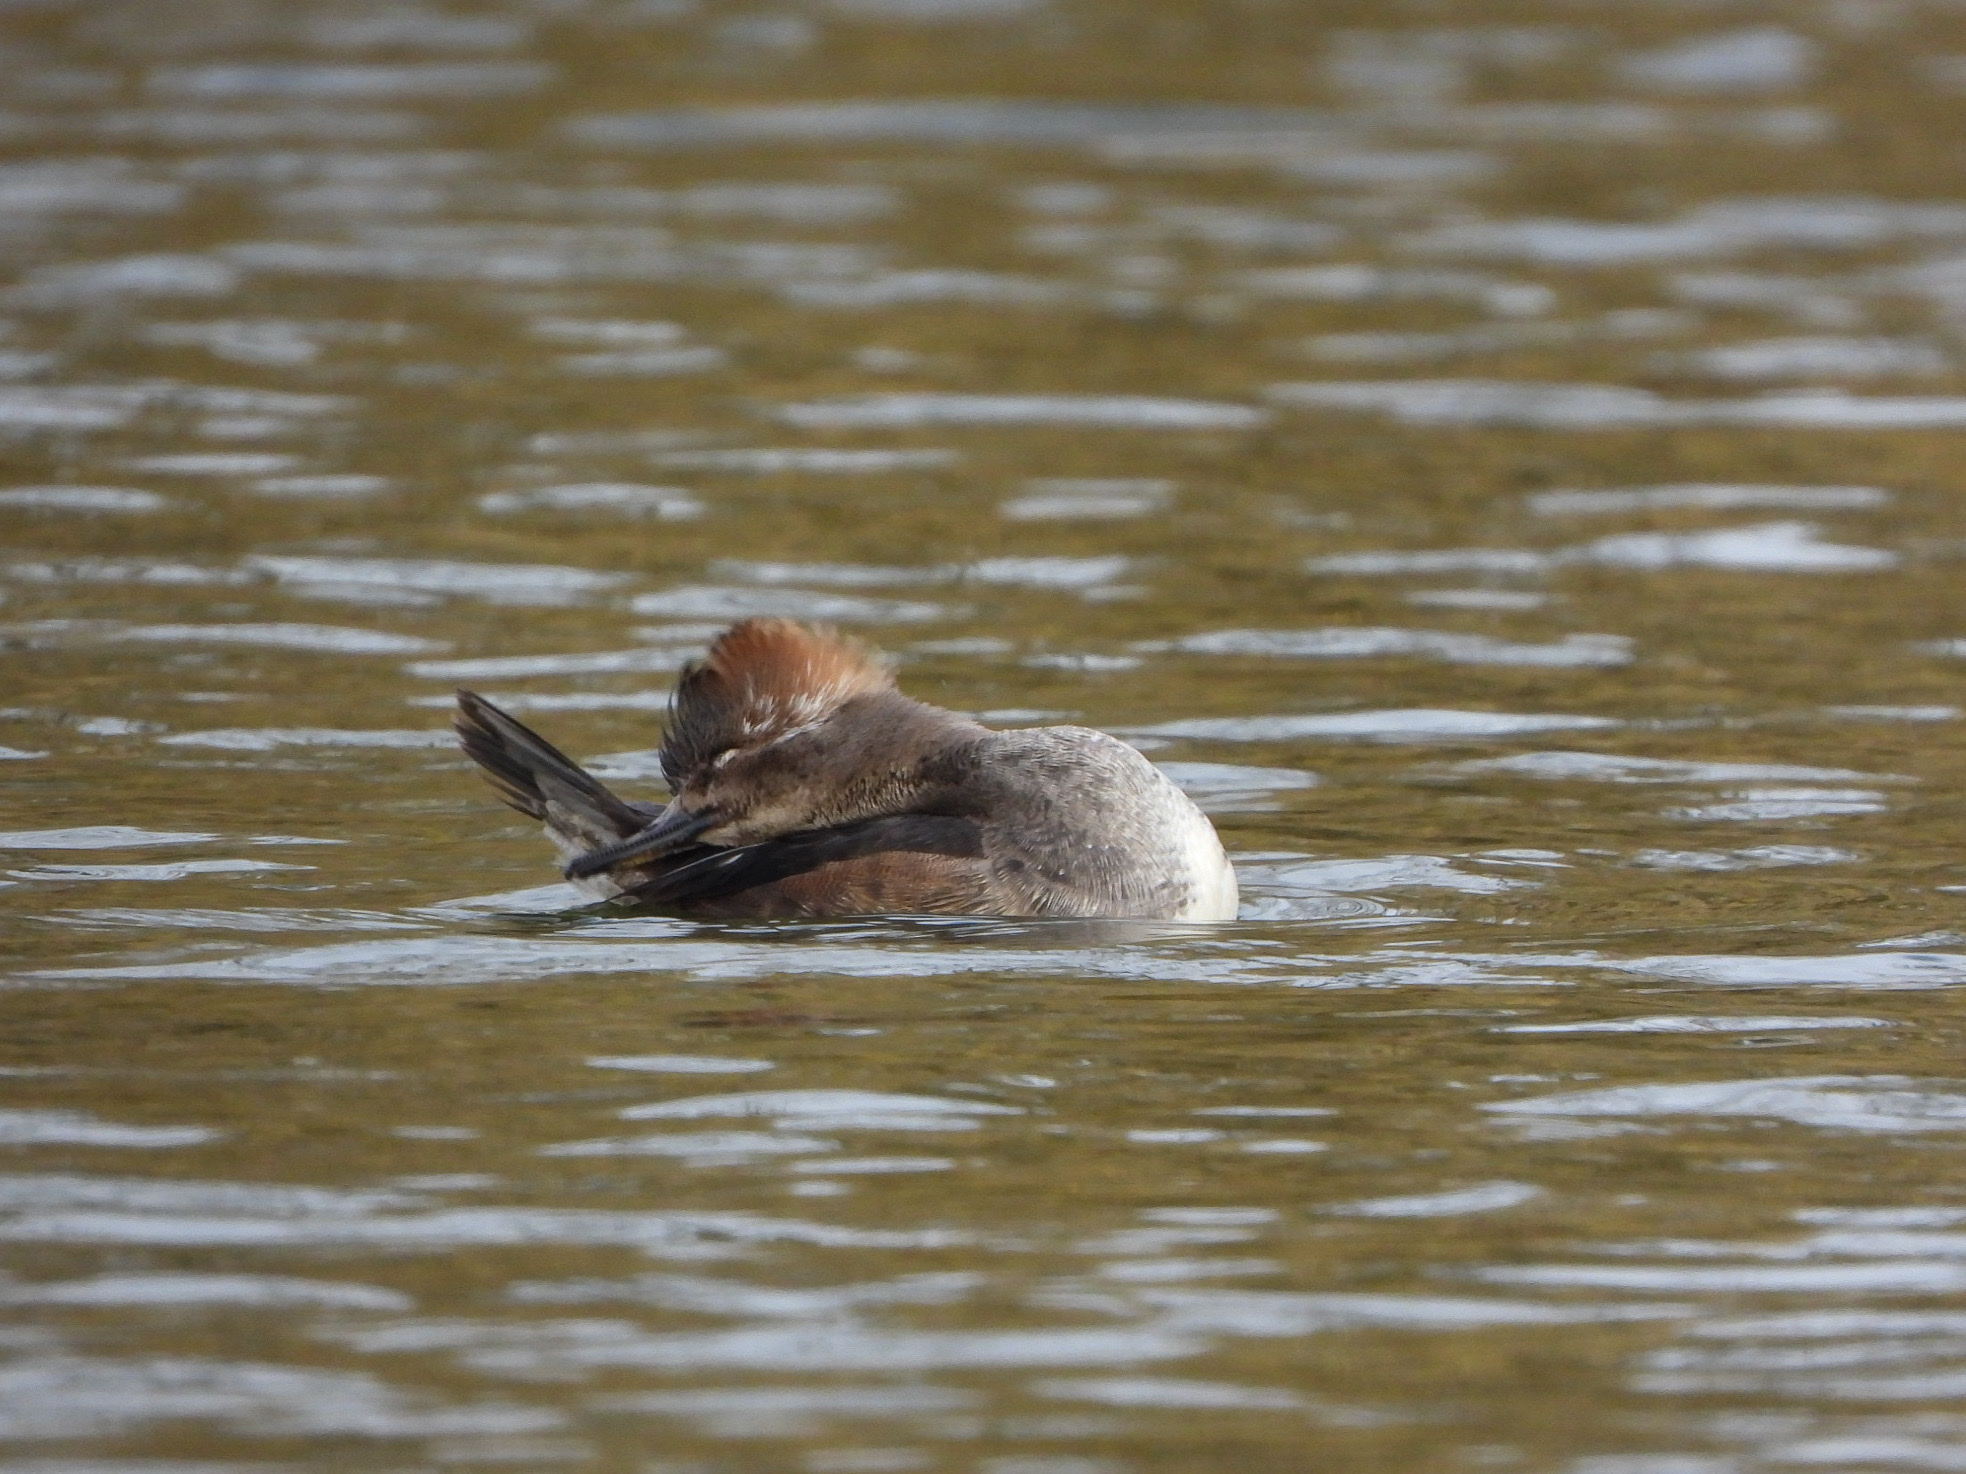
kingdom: Animalia
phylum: Chordata
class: Aves
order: Anseriformes
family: Anatidae
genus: Lophodytes
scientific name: Lophodytes cucullatus
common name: Hooded merganser
